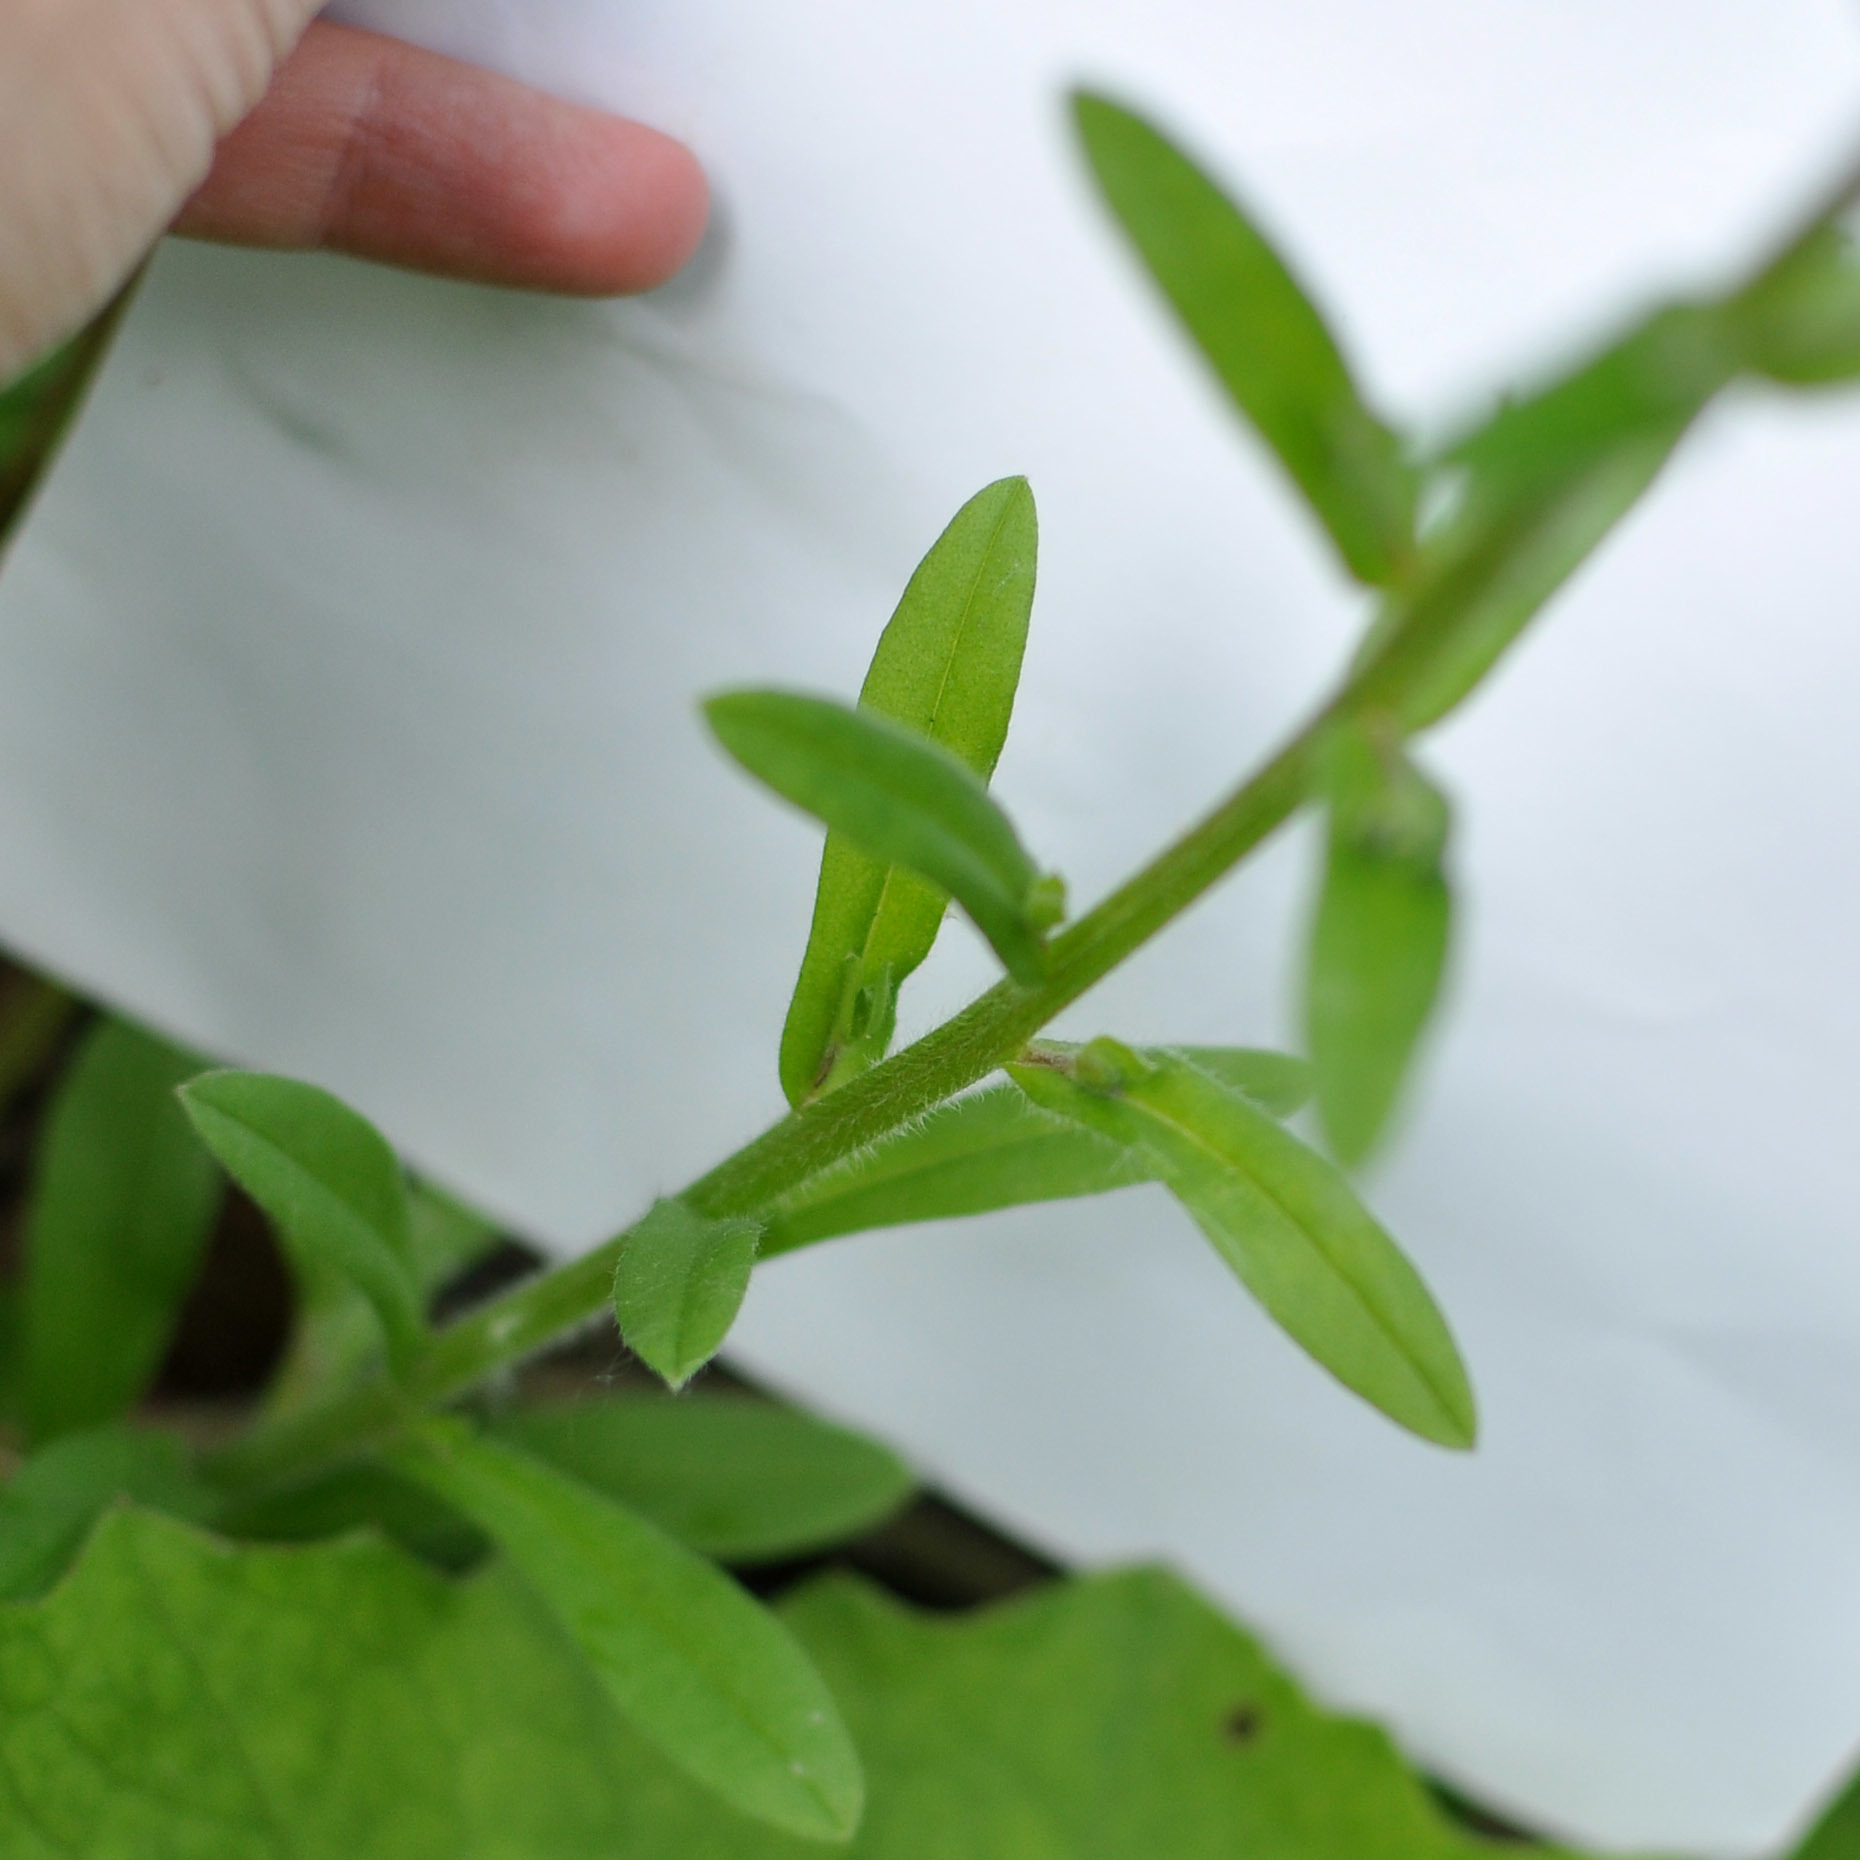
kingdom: Plantae
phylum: Tracheophyta
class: Magnoliopsida
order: Boraginales
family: Boraginaceae
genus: Myosotis
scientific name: Myosotis arvensis
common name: Field forget-me-not
